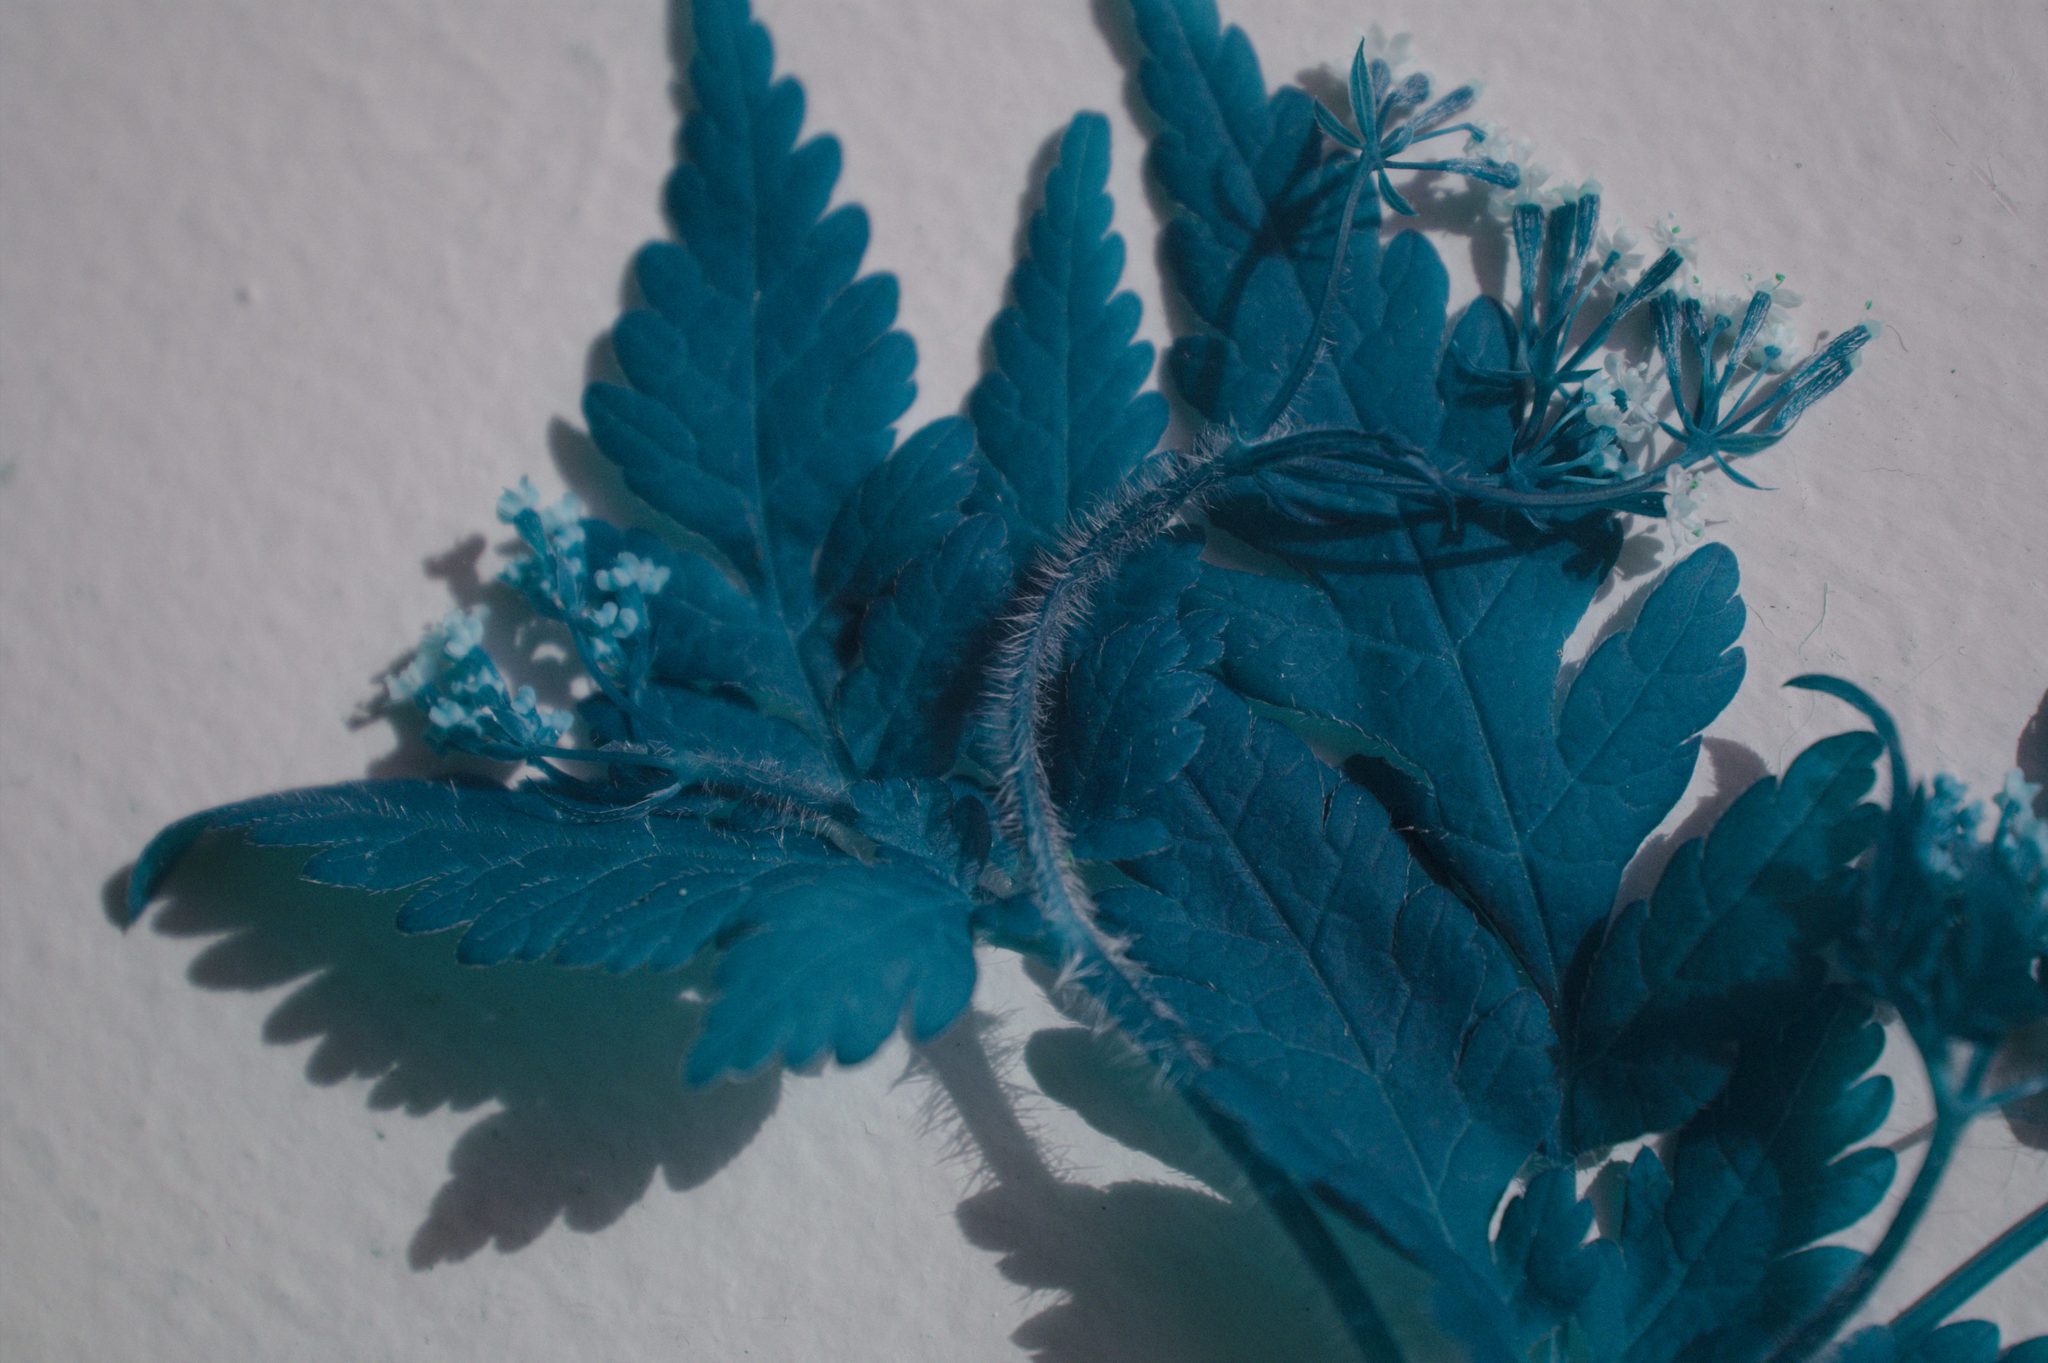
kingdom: Plantae
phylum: Tracheophyta
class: Magnoliopsida
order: Apiales
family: Apiaceae
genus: Osmorhiza
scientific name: Osmorhiza claytonii
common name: Hairy sweet cicely
